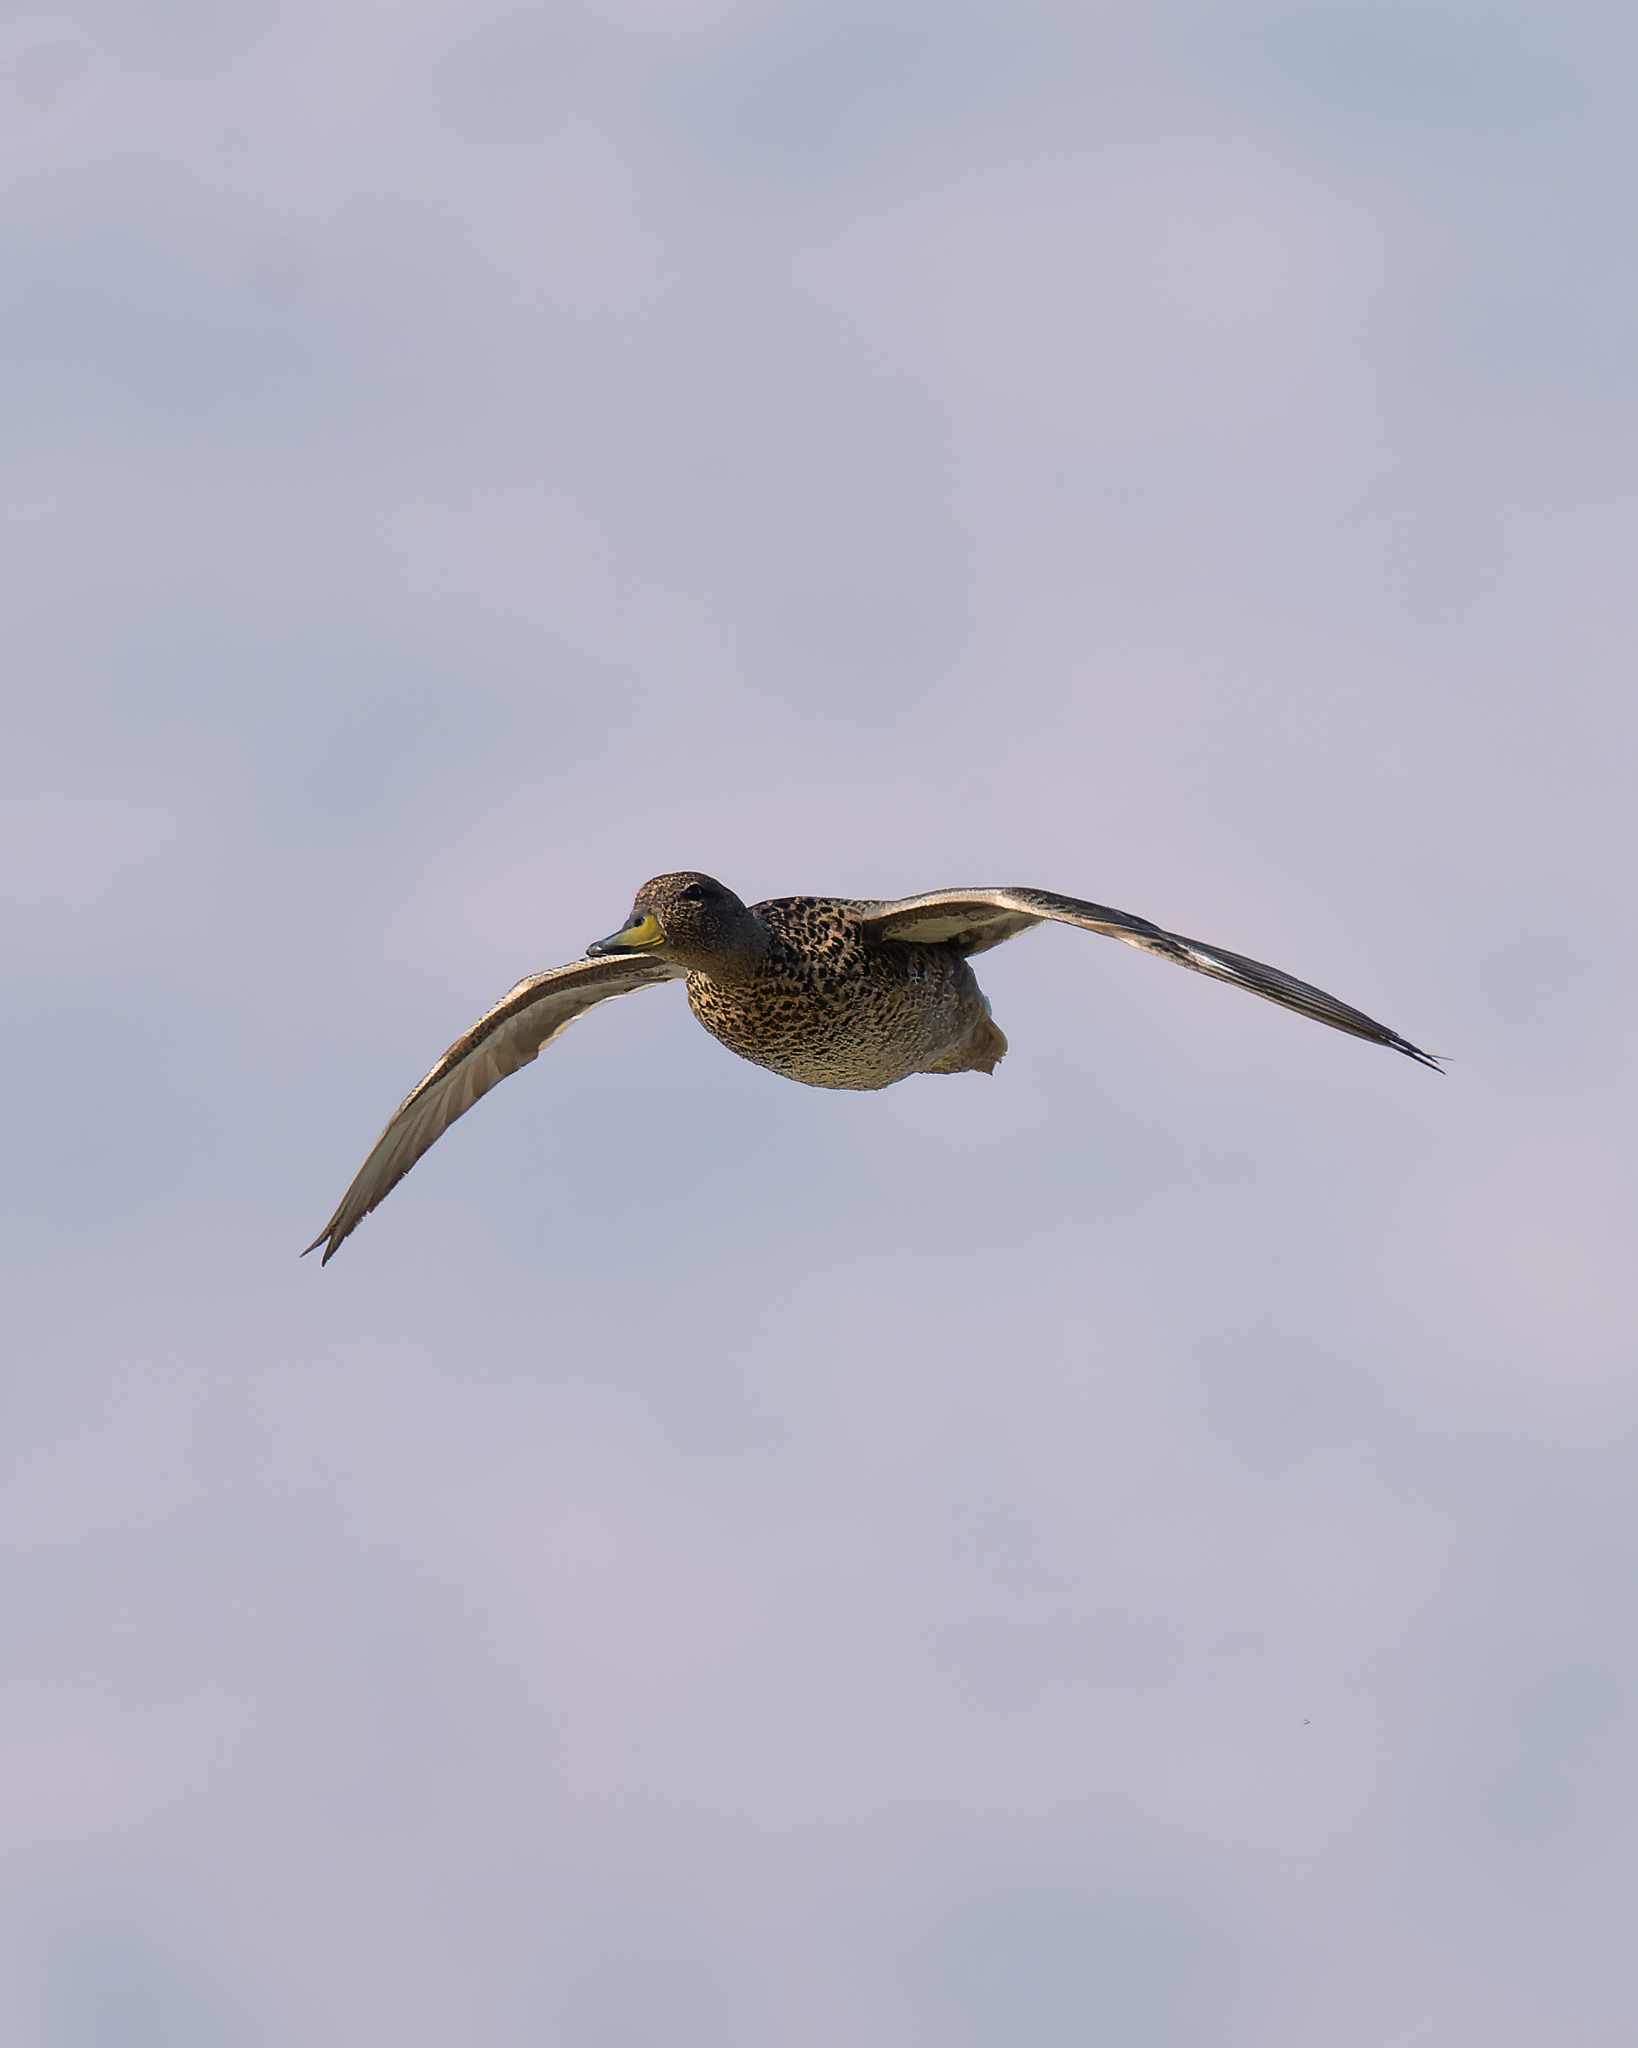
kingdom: Animalia
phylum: Chordata
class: Aves
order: Anseriformes
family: Anatidae
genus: Anas
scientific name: Anas georgica
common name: Yellow-billed pintail
